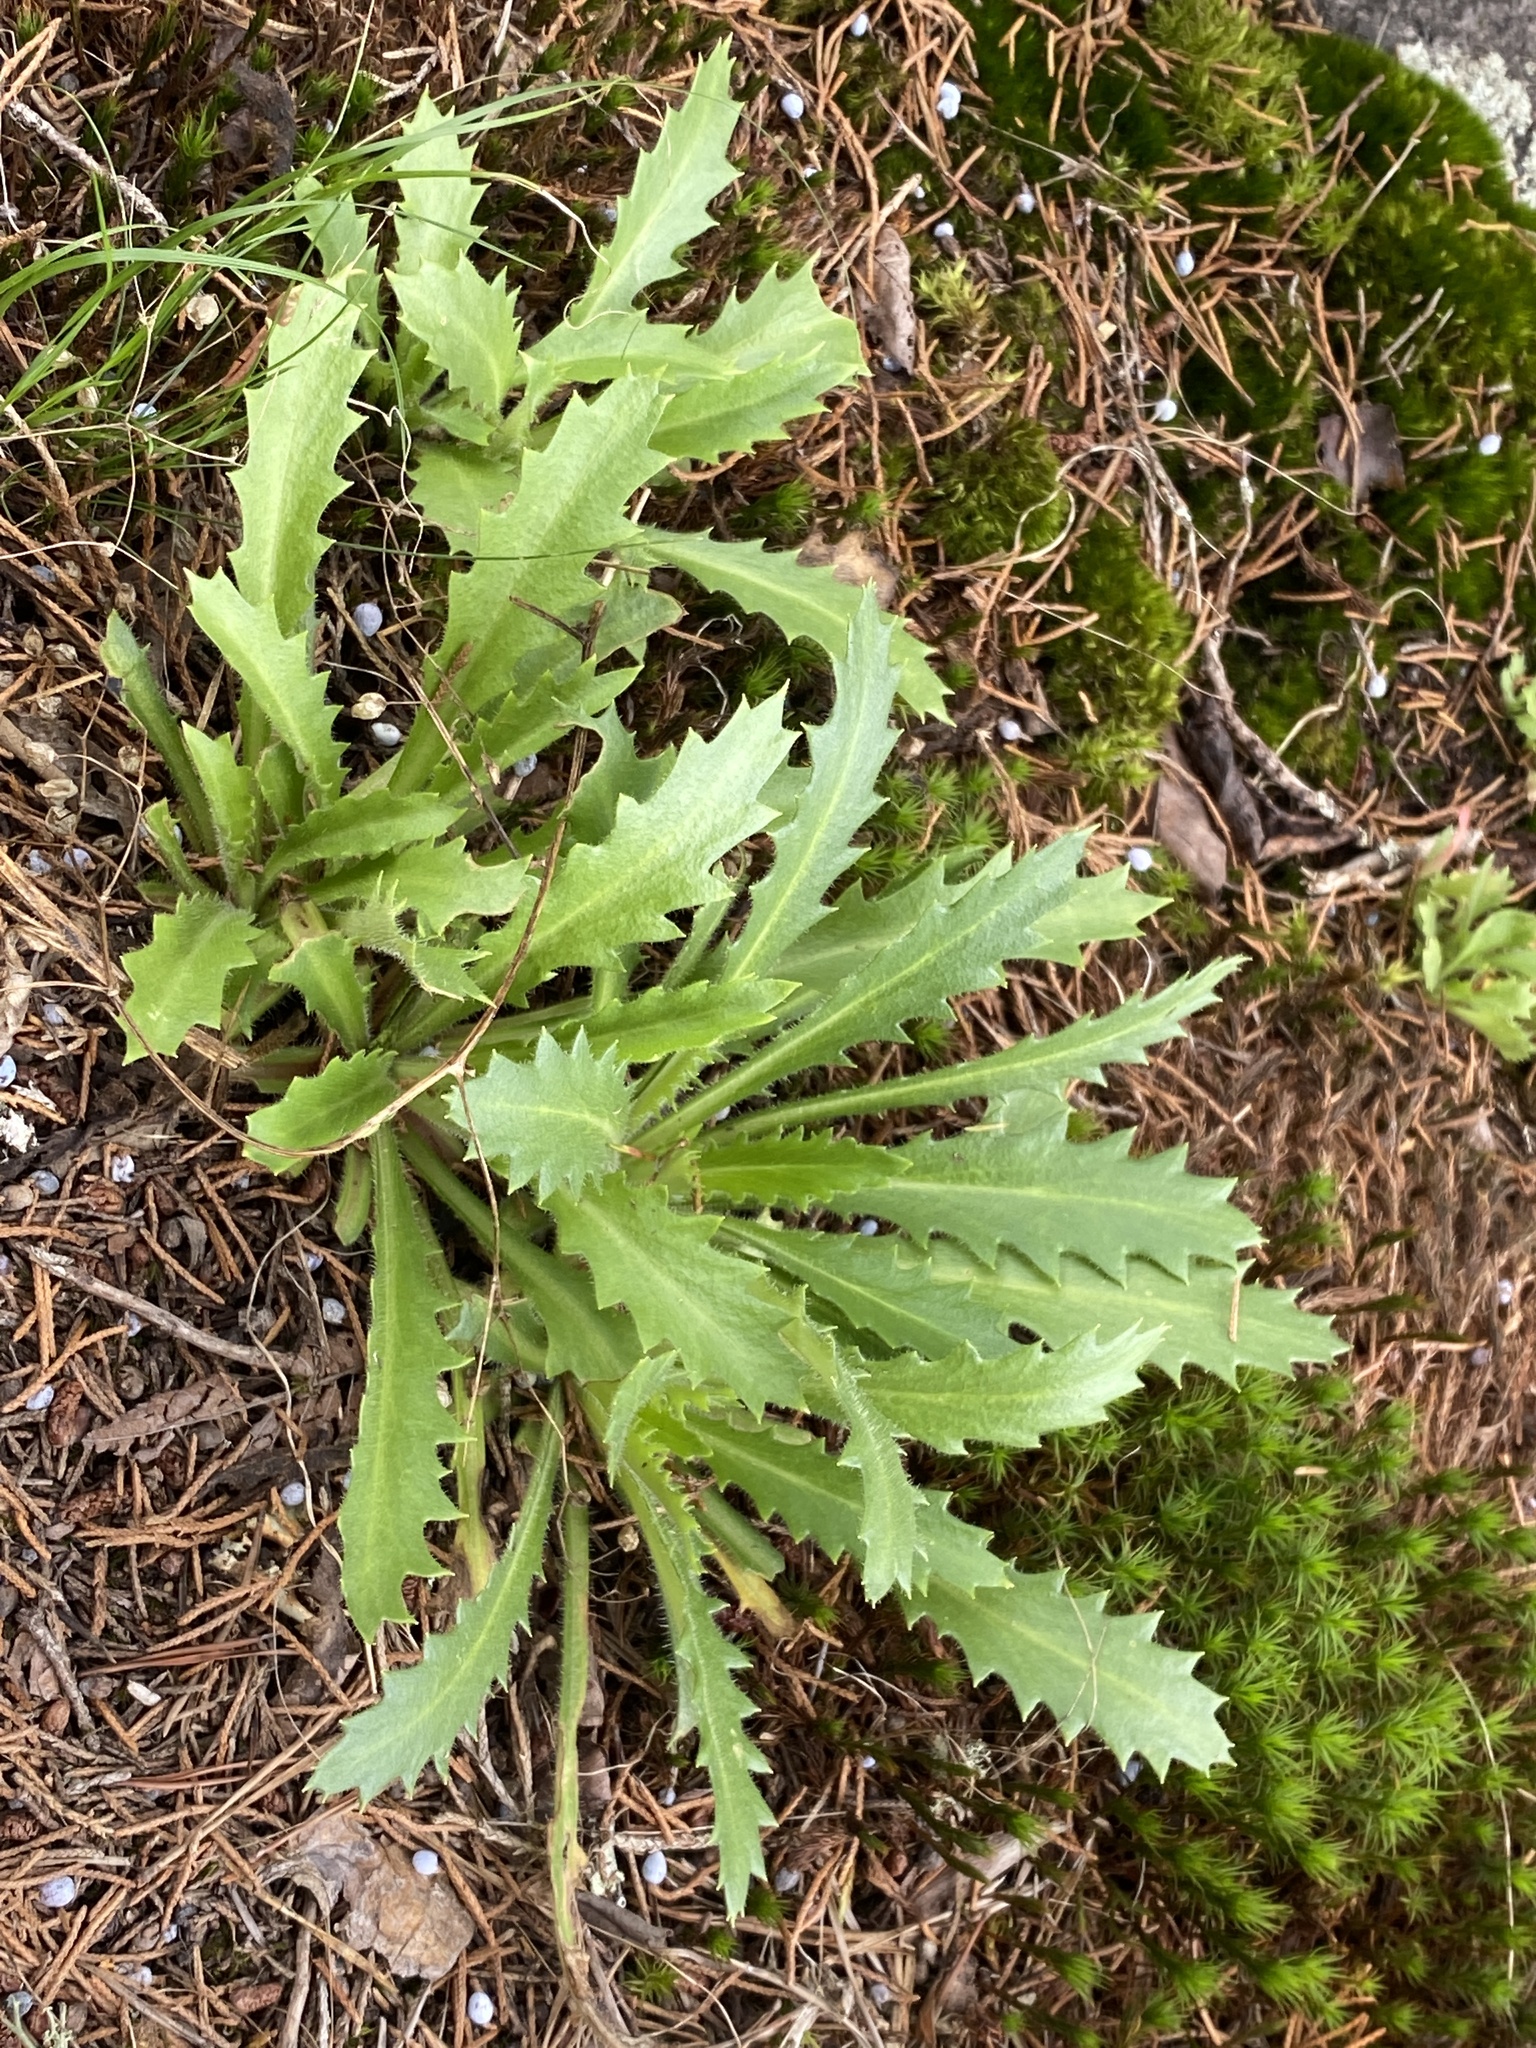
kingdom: Plantae
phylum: Tracheophyta
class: Magnoliopsida
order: Saxifragales
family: Saxifragaceae
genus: Micranthes
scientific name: Micranthes petiolaris
